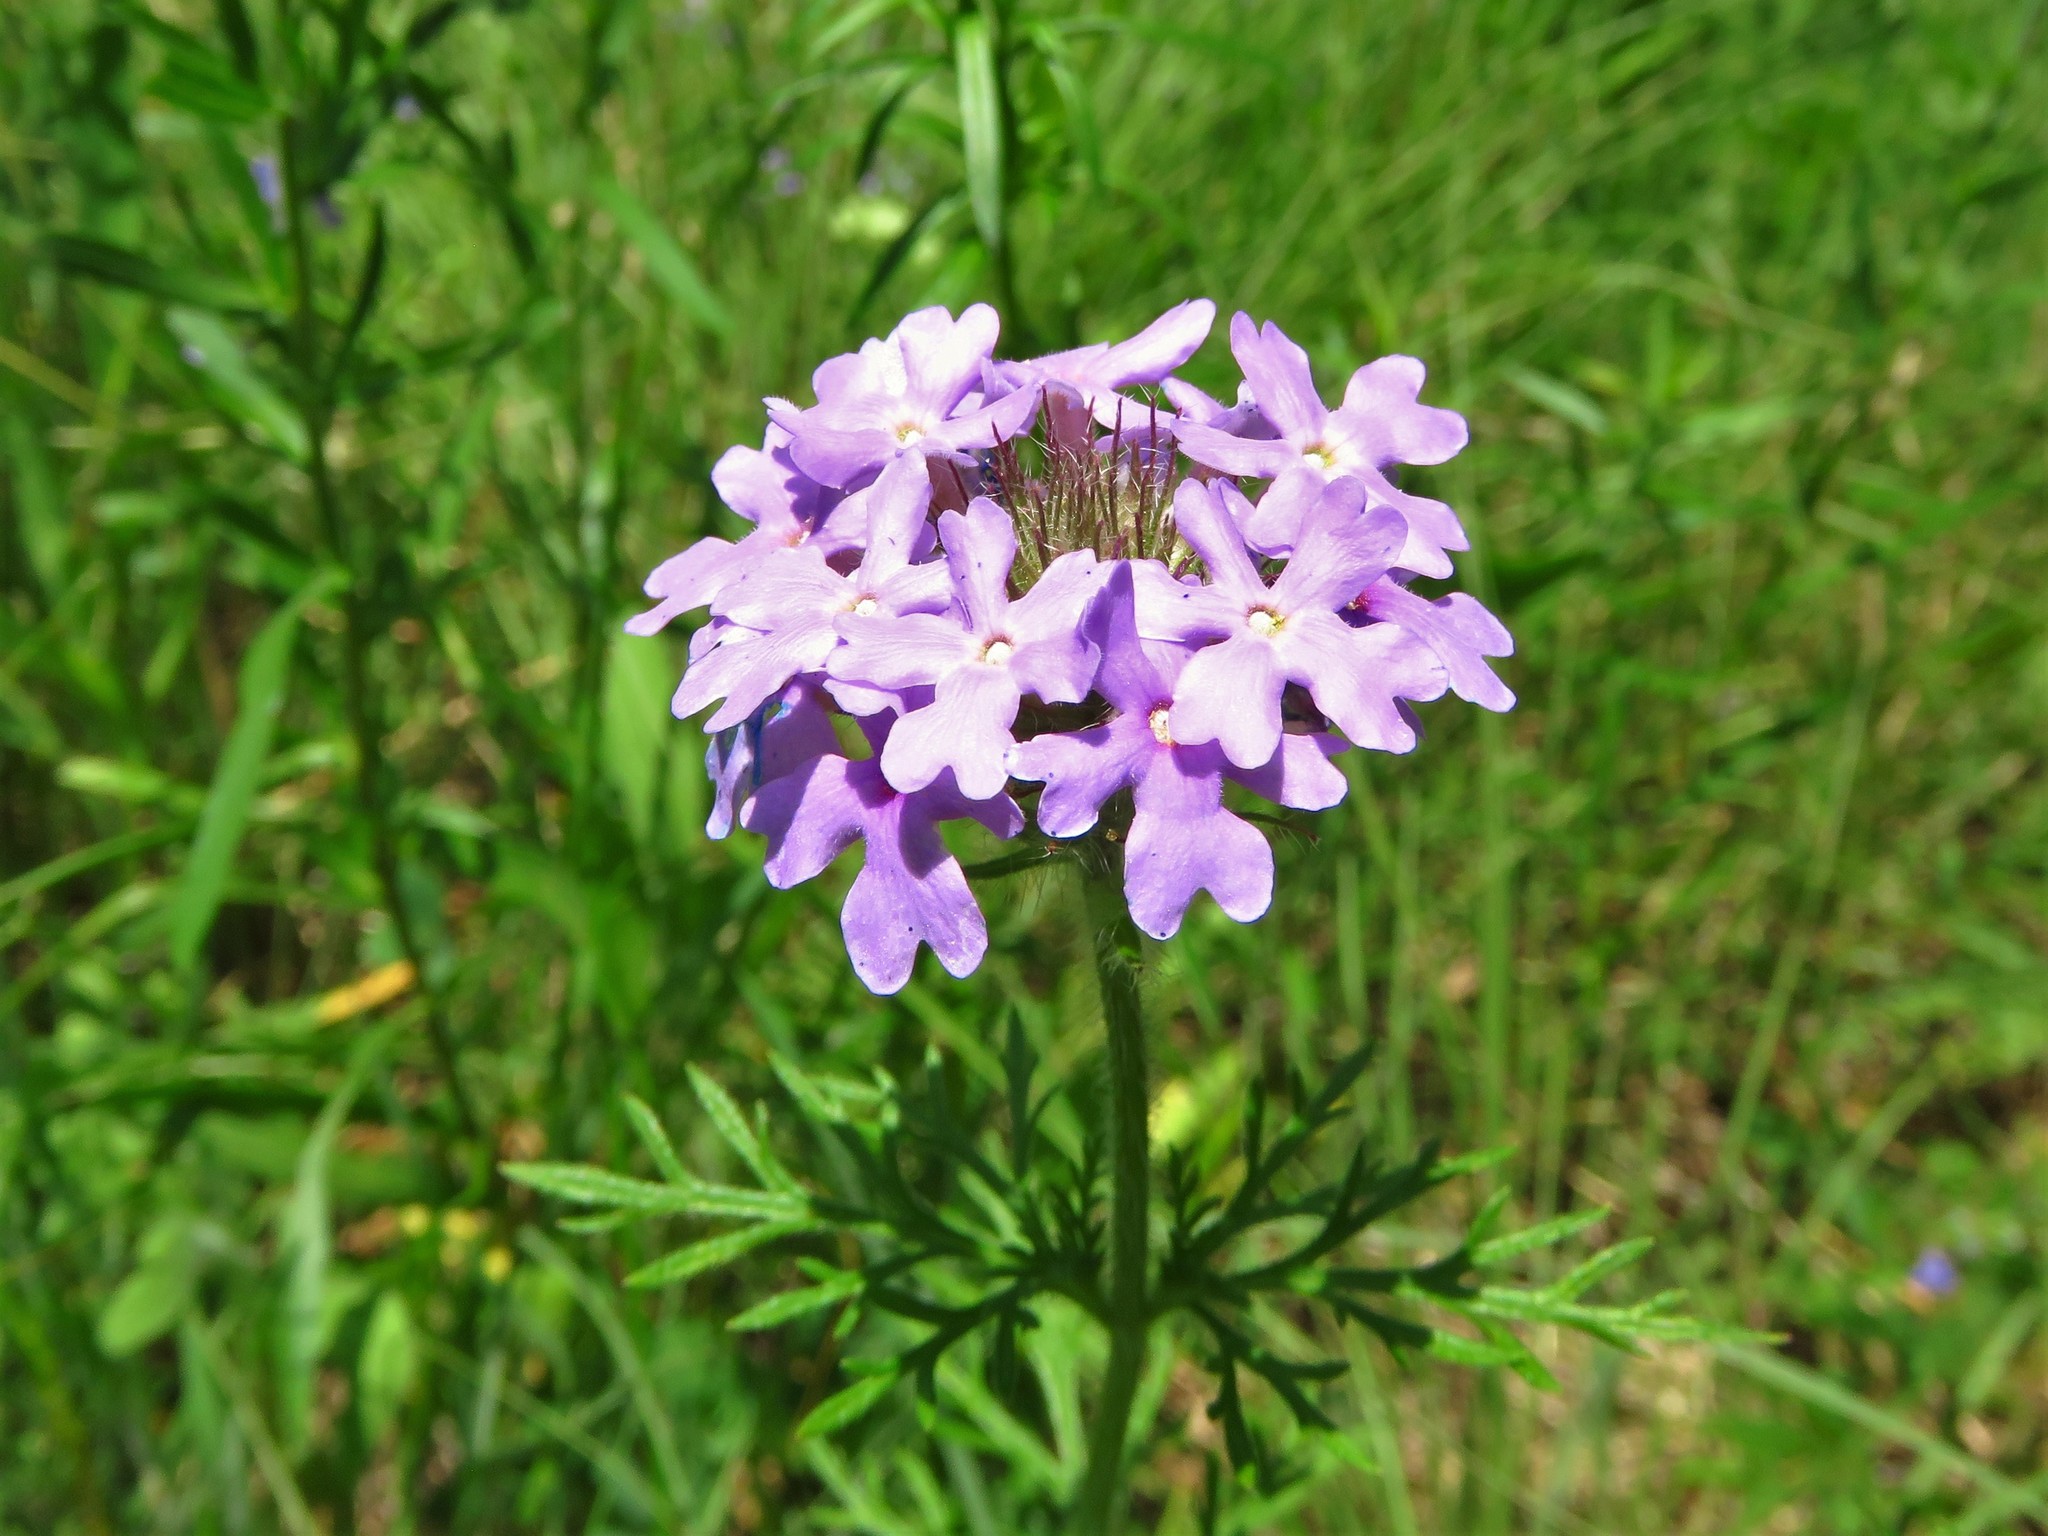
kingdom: Plantae
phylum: Tracheophyta
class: Magnoliopsida
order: Lamiales
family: Verbenaceae
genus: Verbena
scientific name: Verbena bipinnatifida
